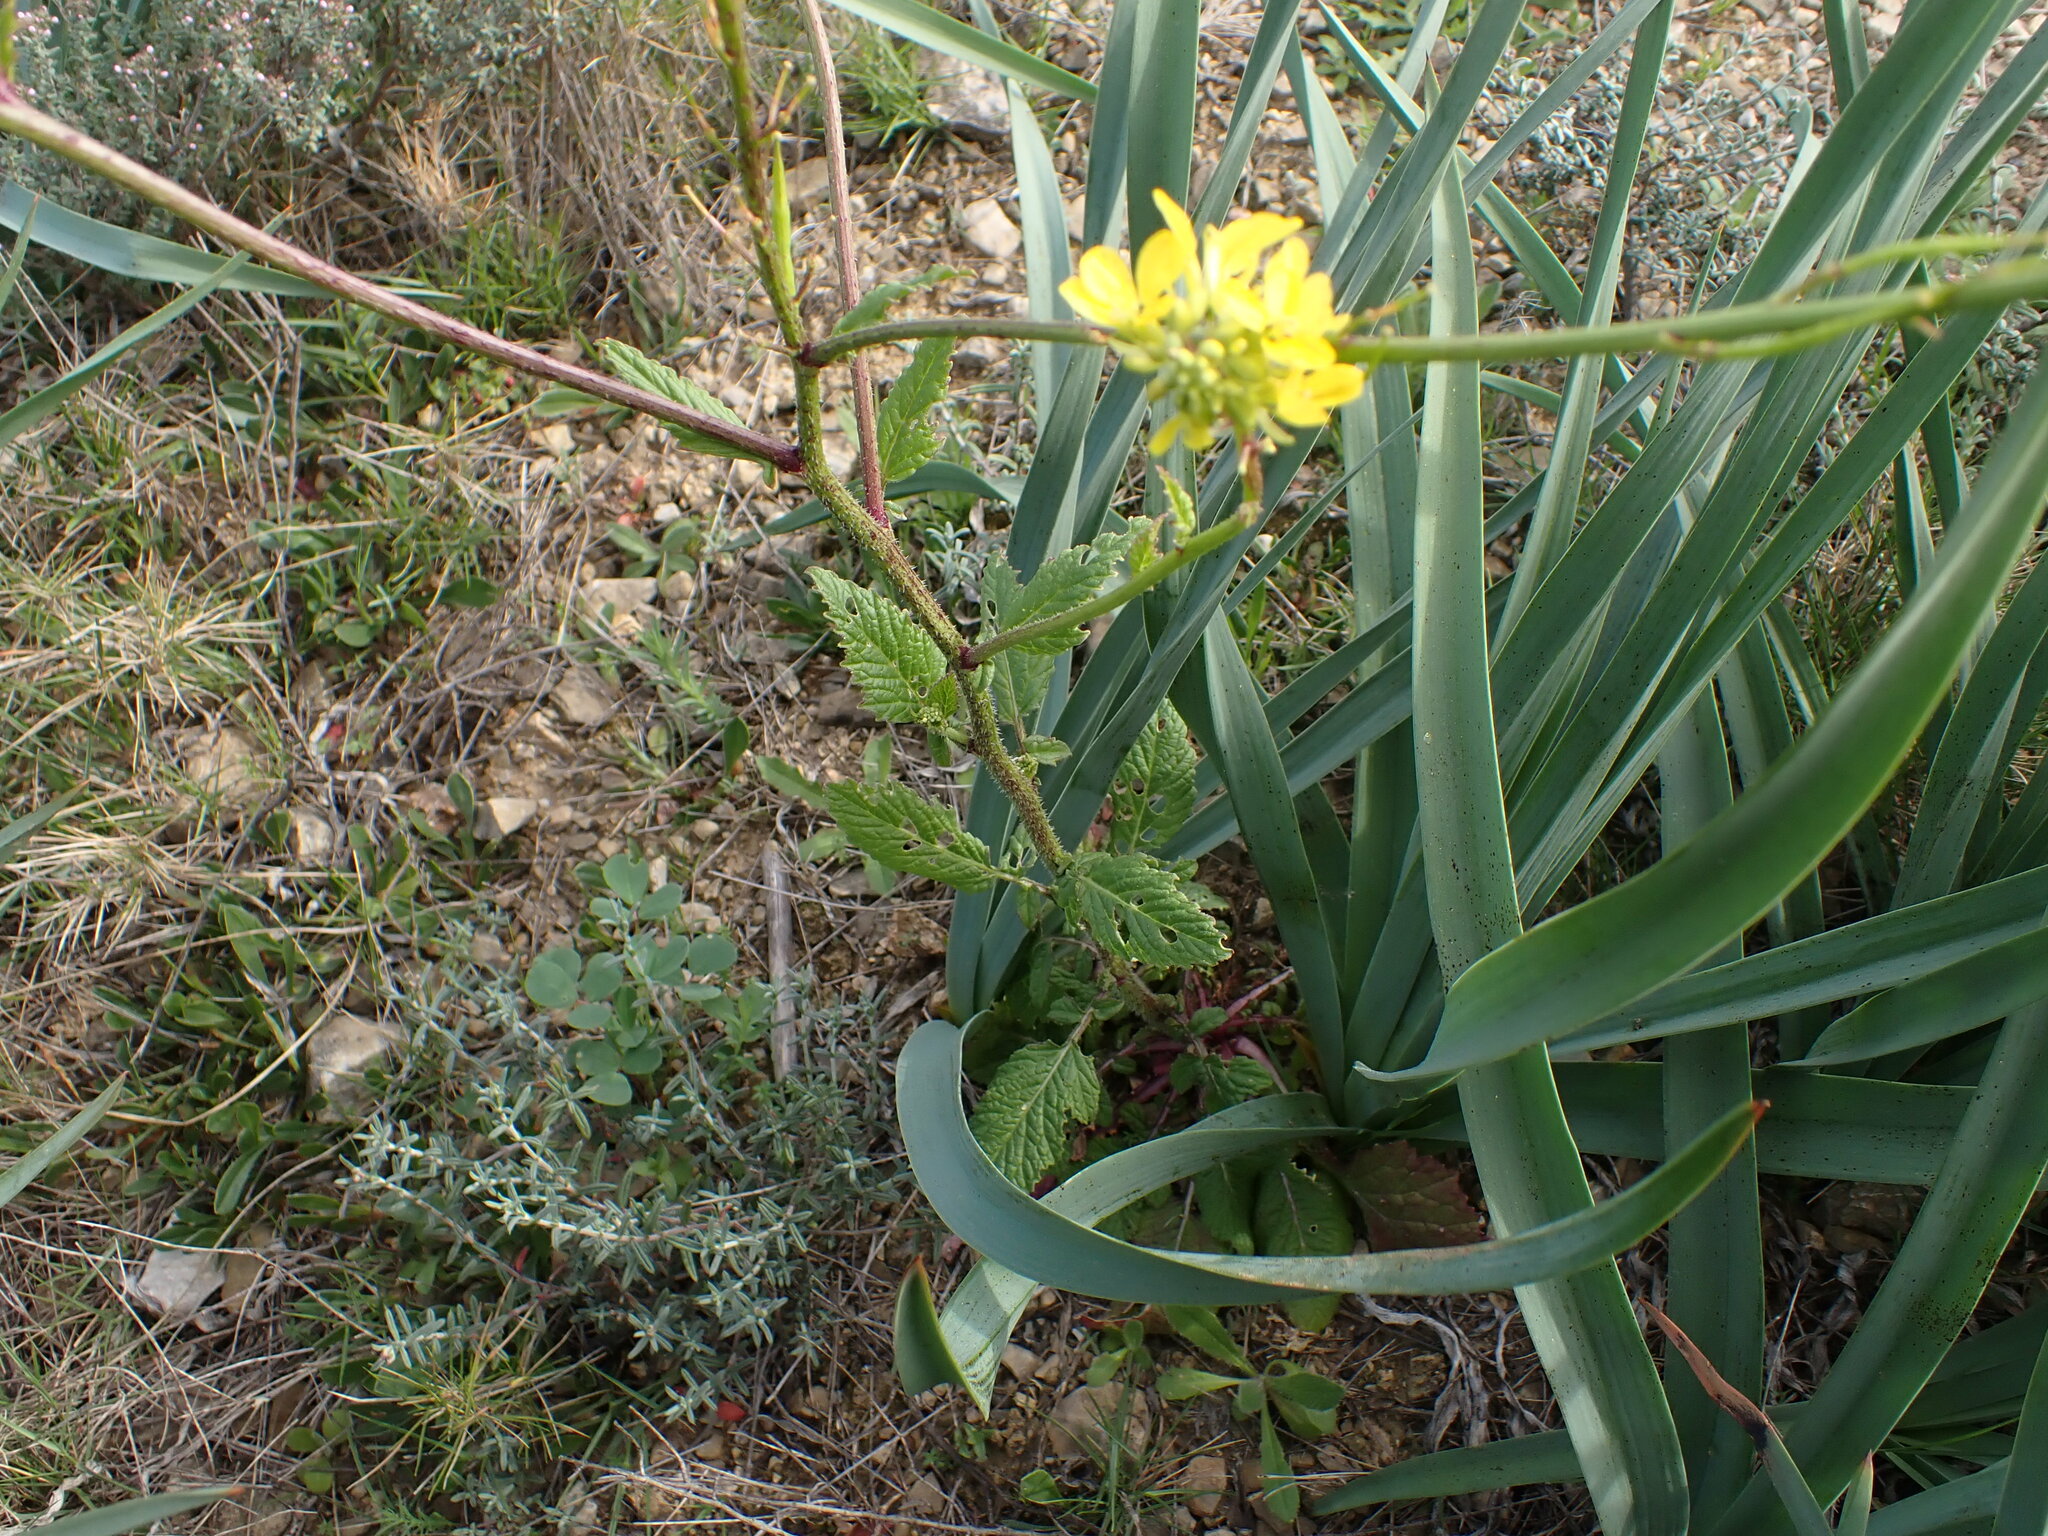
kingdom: Plantae
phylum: Tracheophyta
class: Magnoliopsida
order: Brassicales
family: Brassicaceae
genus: Hirschfeldia
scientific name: Hirschfeldia incana
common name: Hoary mustard
